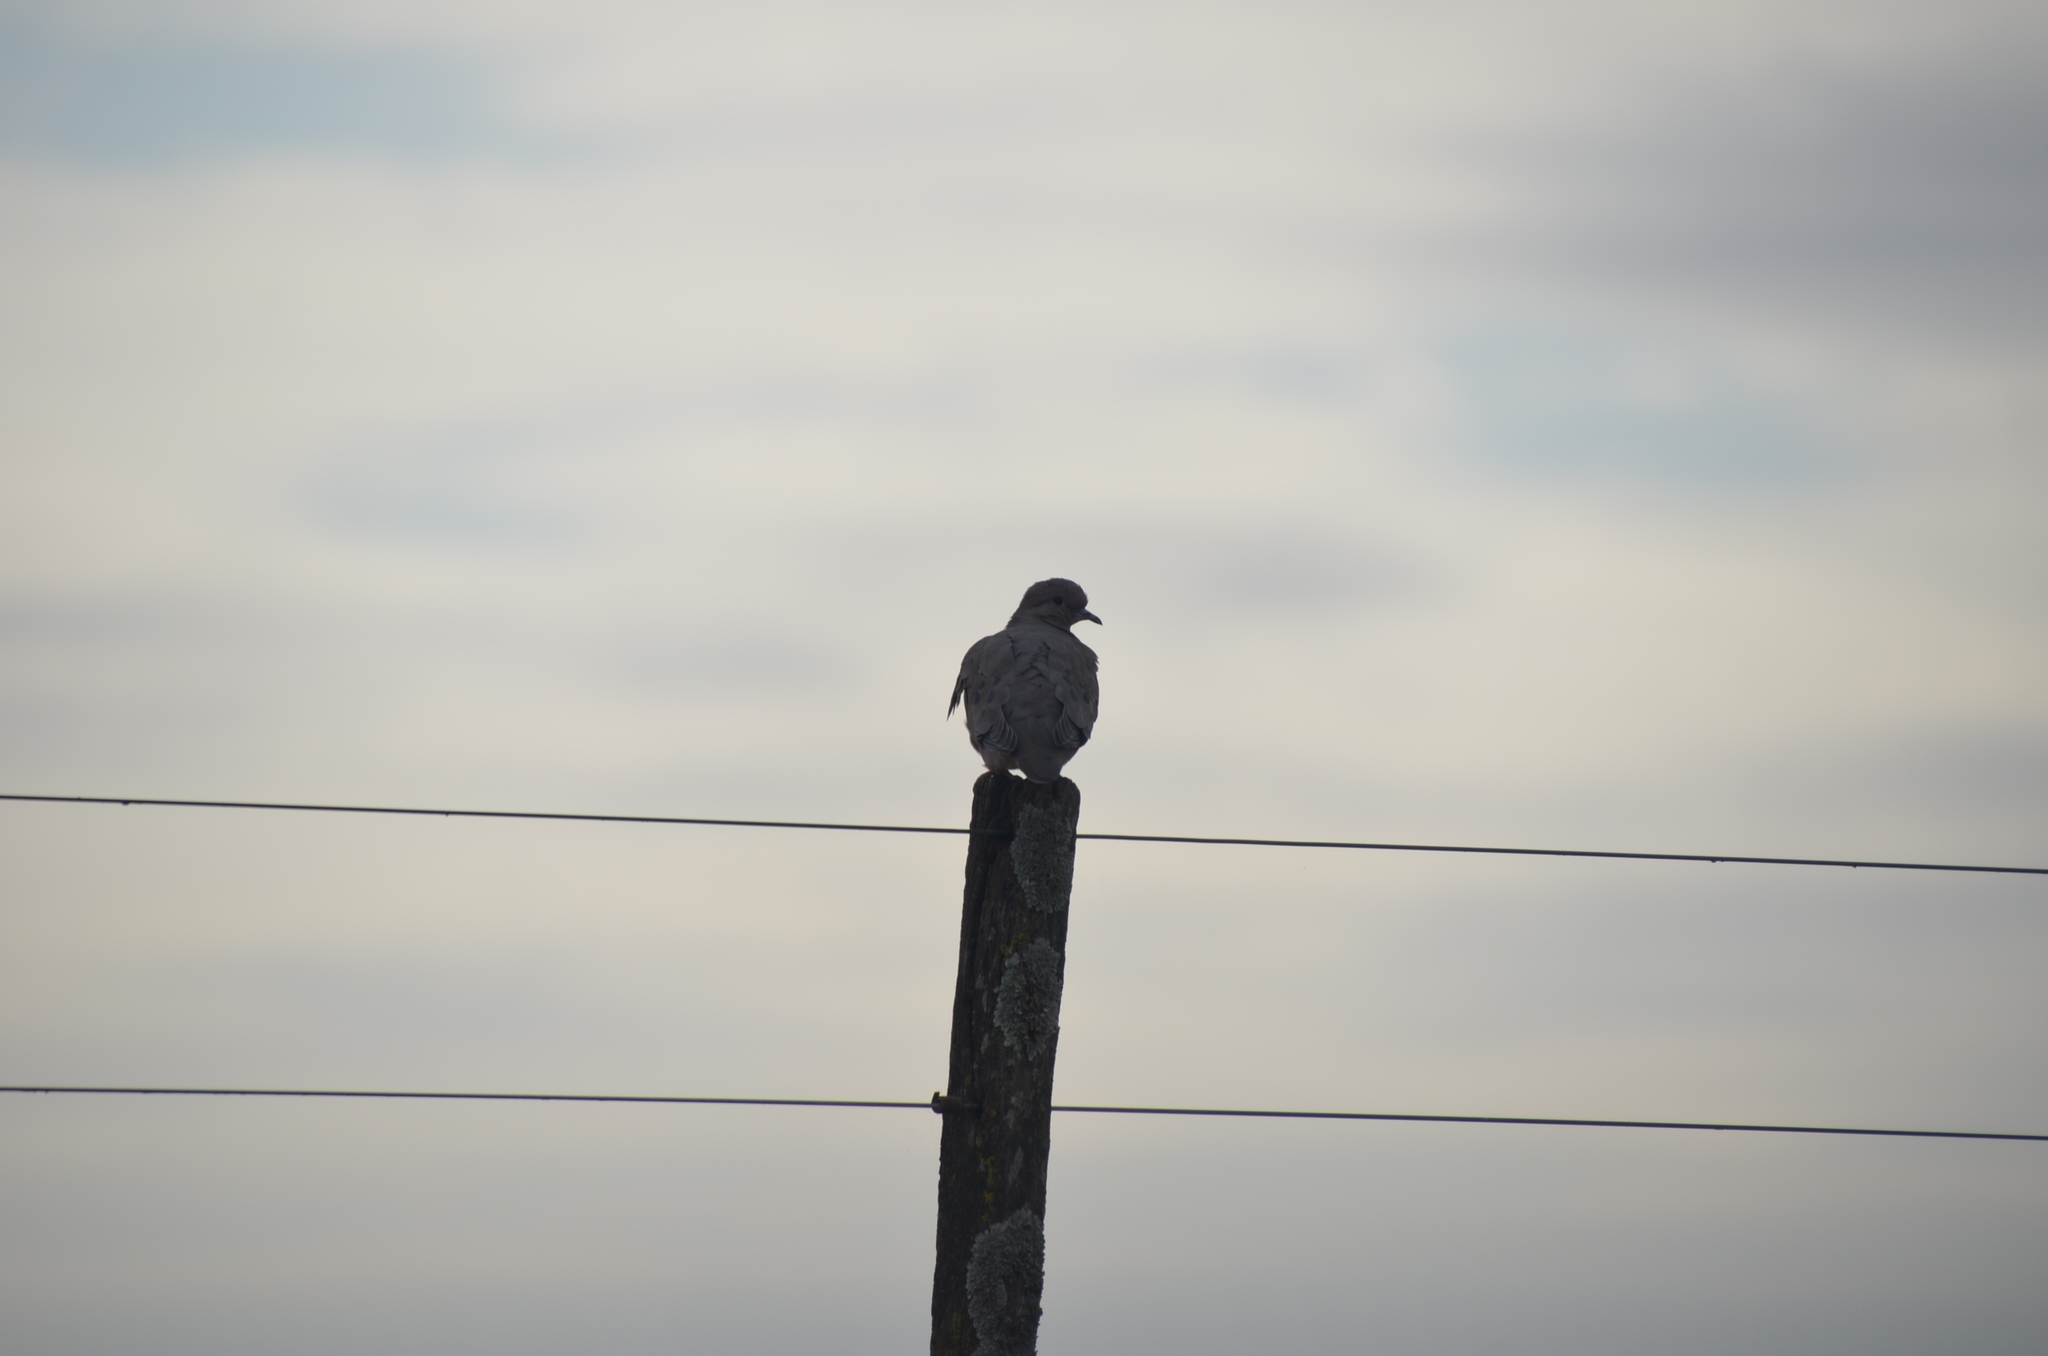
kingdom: Animalia
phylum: Chordata
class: Aves
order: Columbiformes
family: Columbidae
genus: Zenaida
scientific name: Zenaida auriculata
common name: Eared dove
